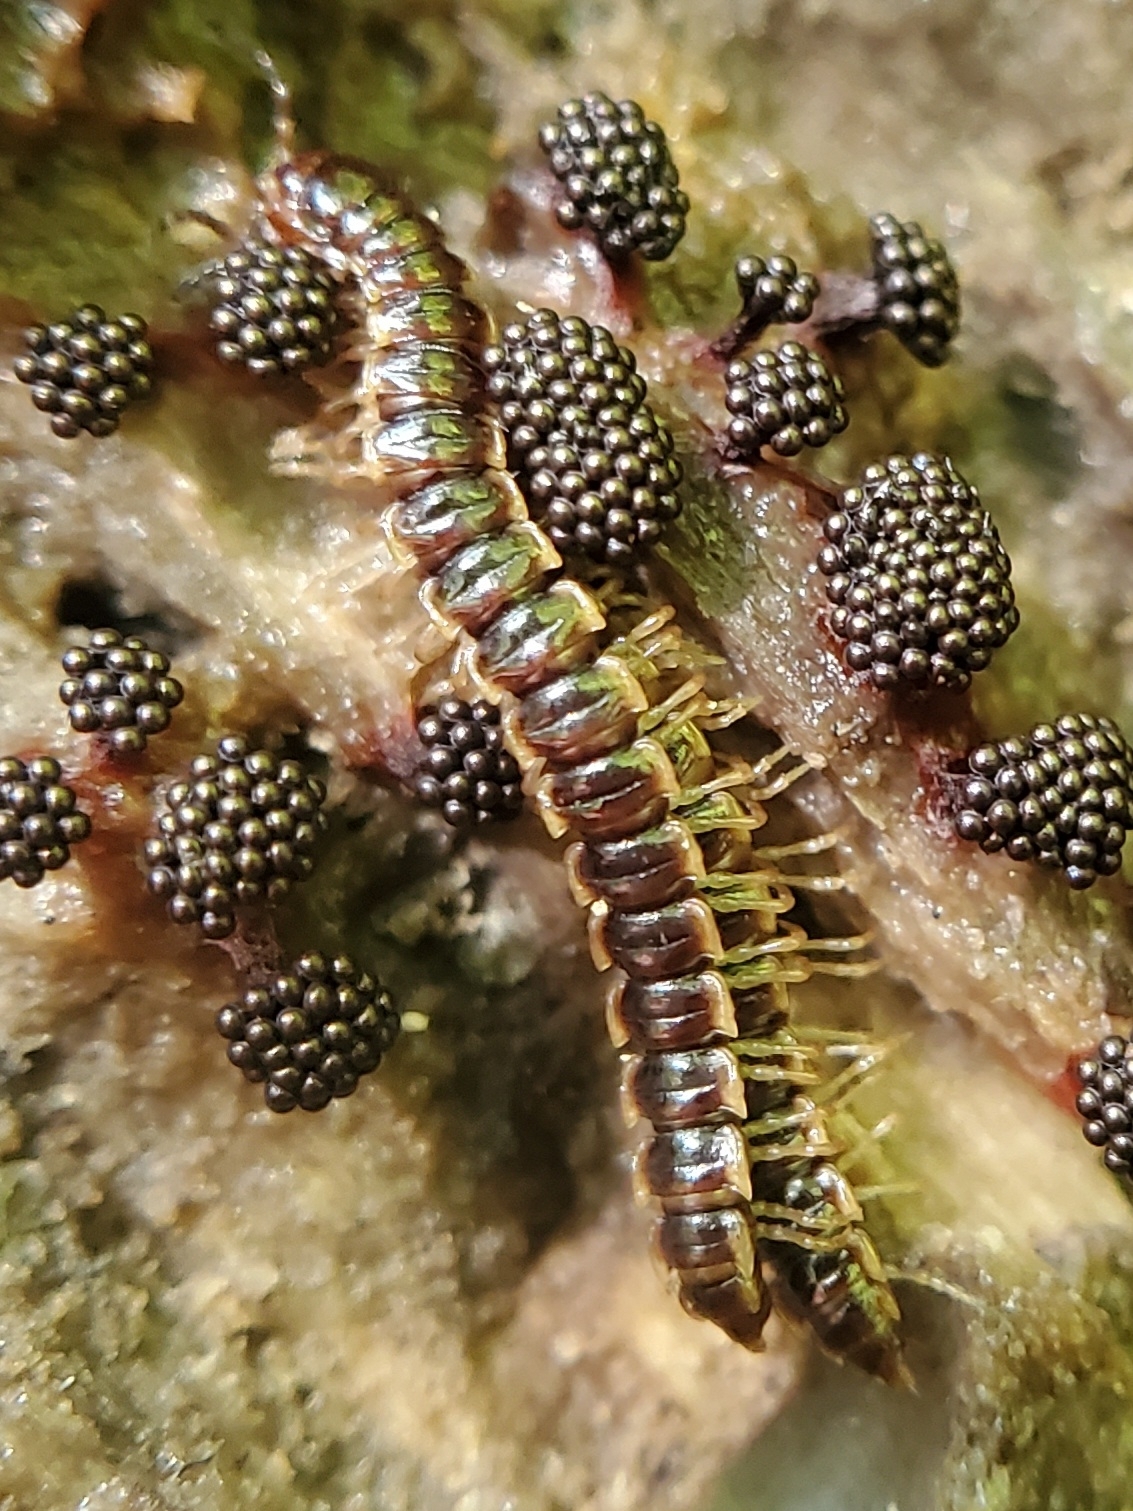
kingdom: Animalia
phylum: Arthropoda
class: Diplopoda
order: Polydesmida
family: Paradoxosomatidae
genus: Oxidus
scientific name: Oxidus gracilis
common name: Greenhouse millipede
